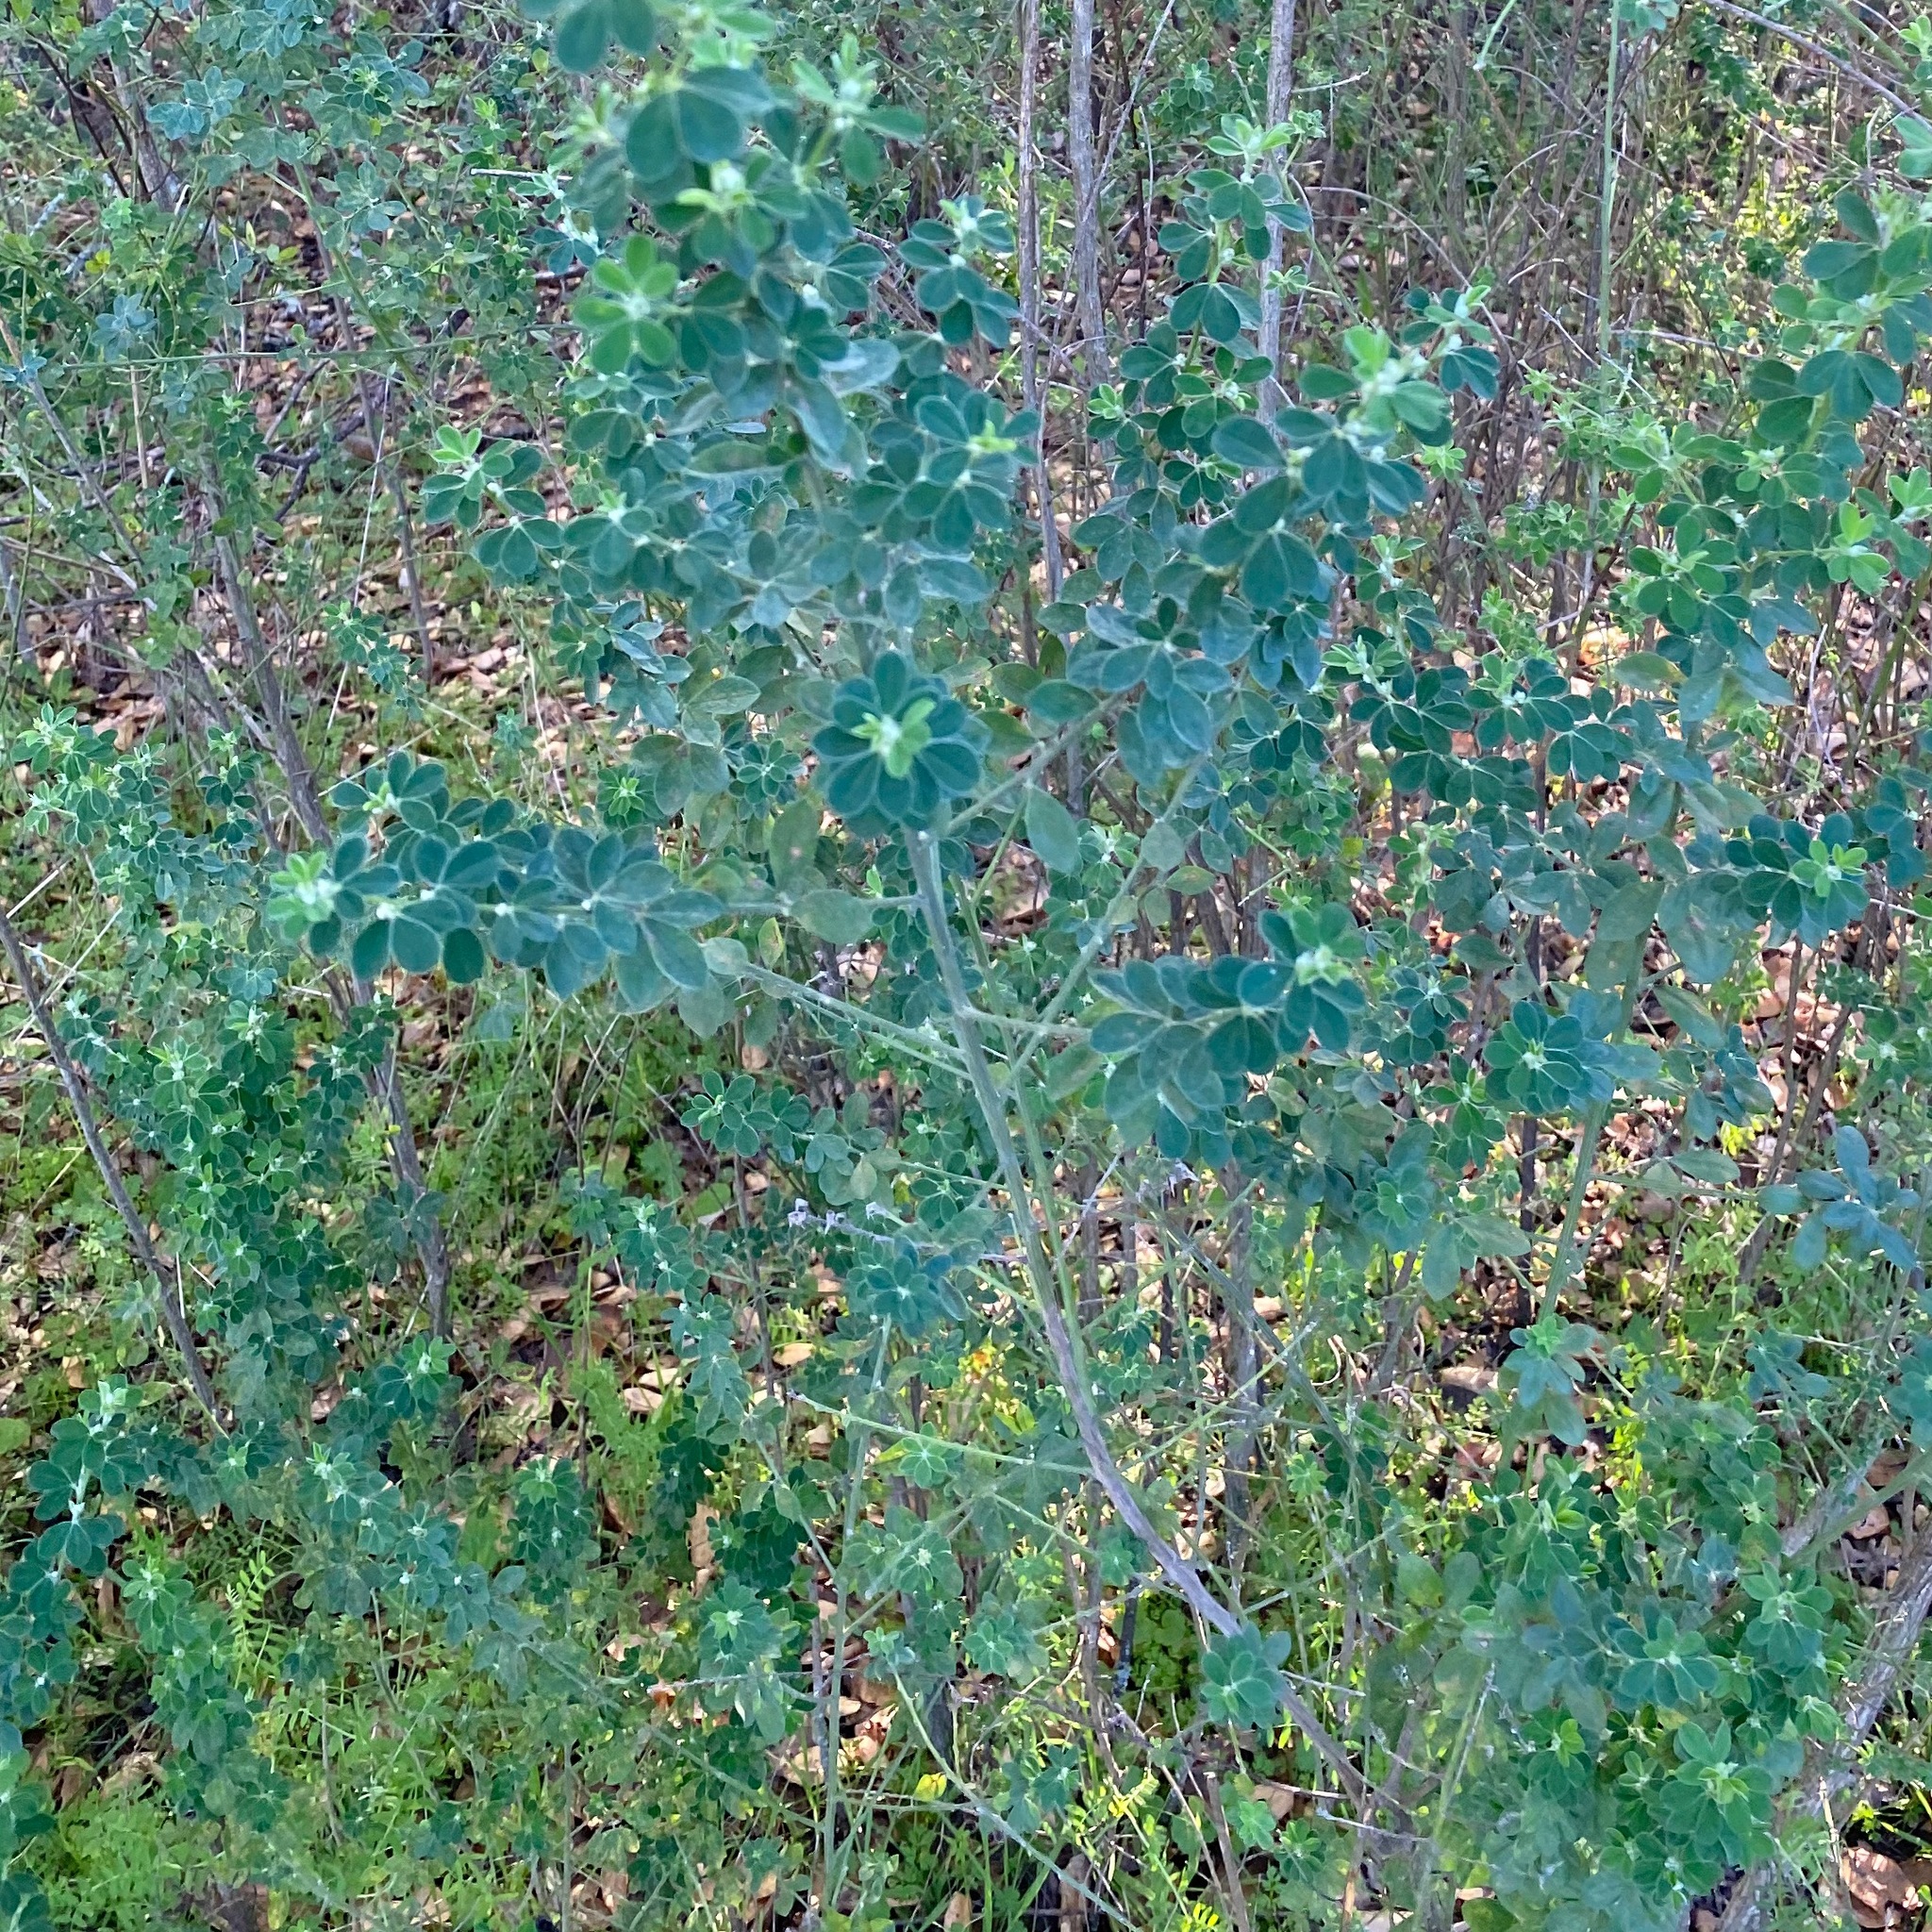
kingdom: Plantae
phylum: Tracheophyta
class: Magnoliopsida
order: Fabales
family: Fabaceae
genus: Genista
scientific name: Genista monspessulana
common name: Montpellier broom
